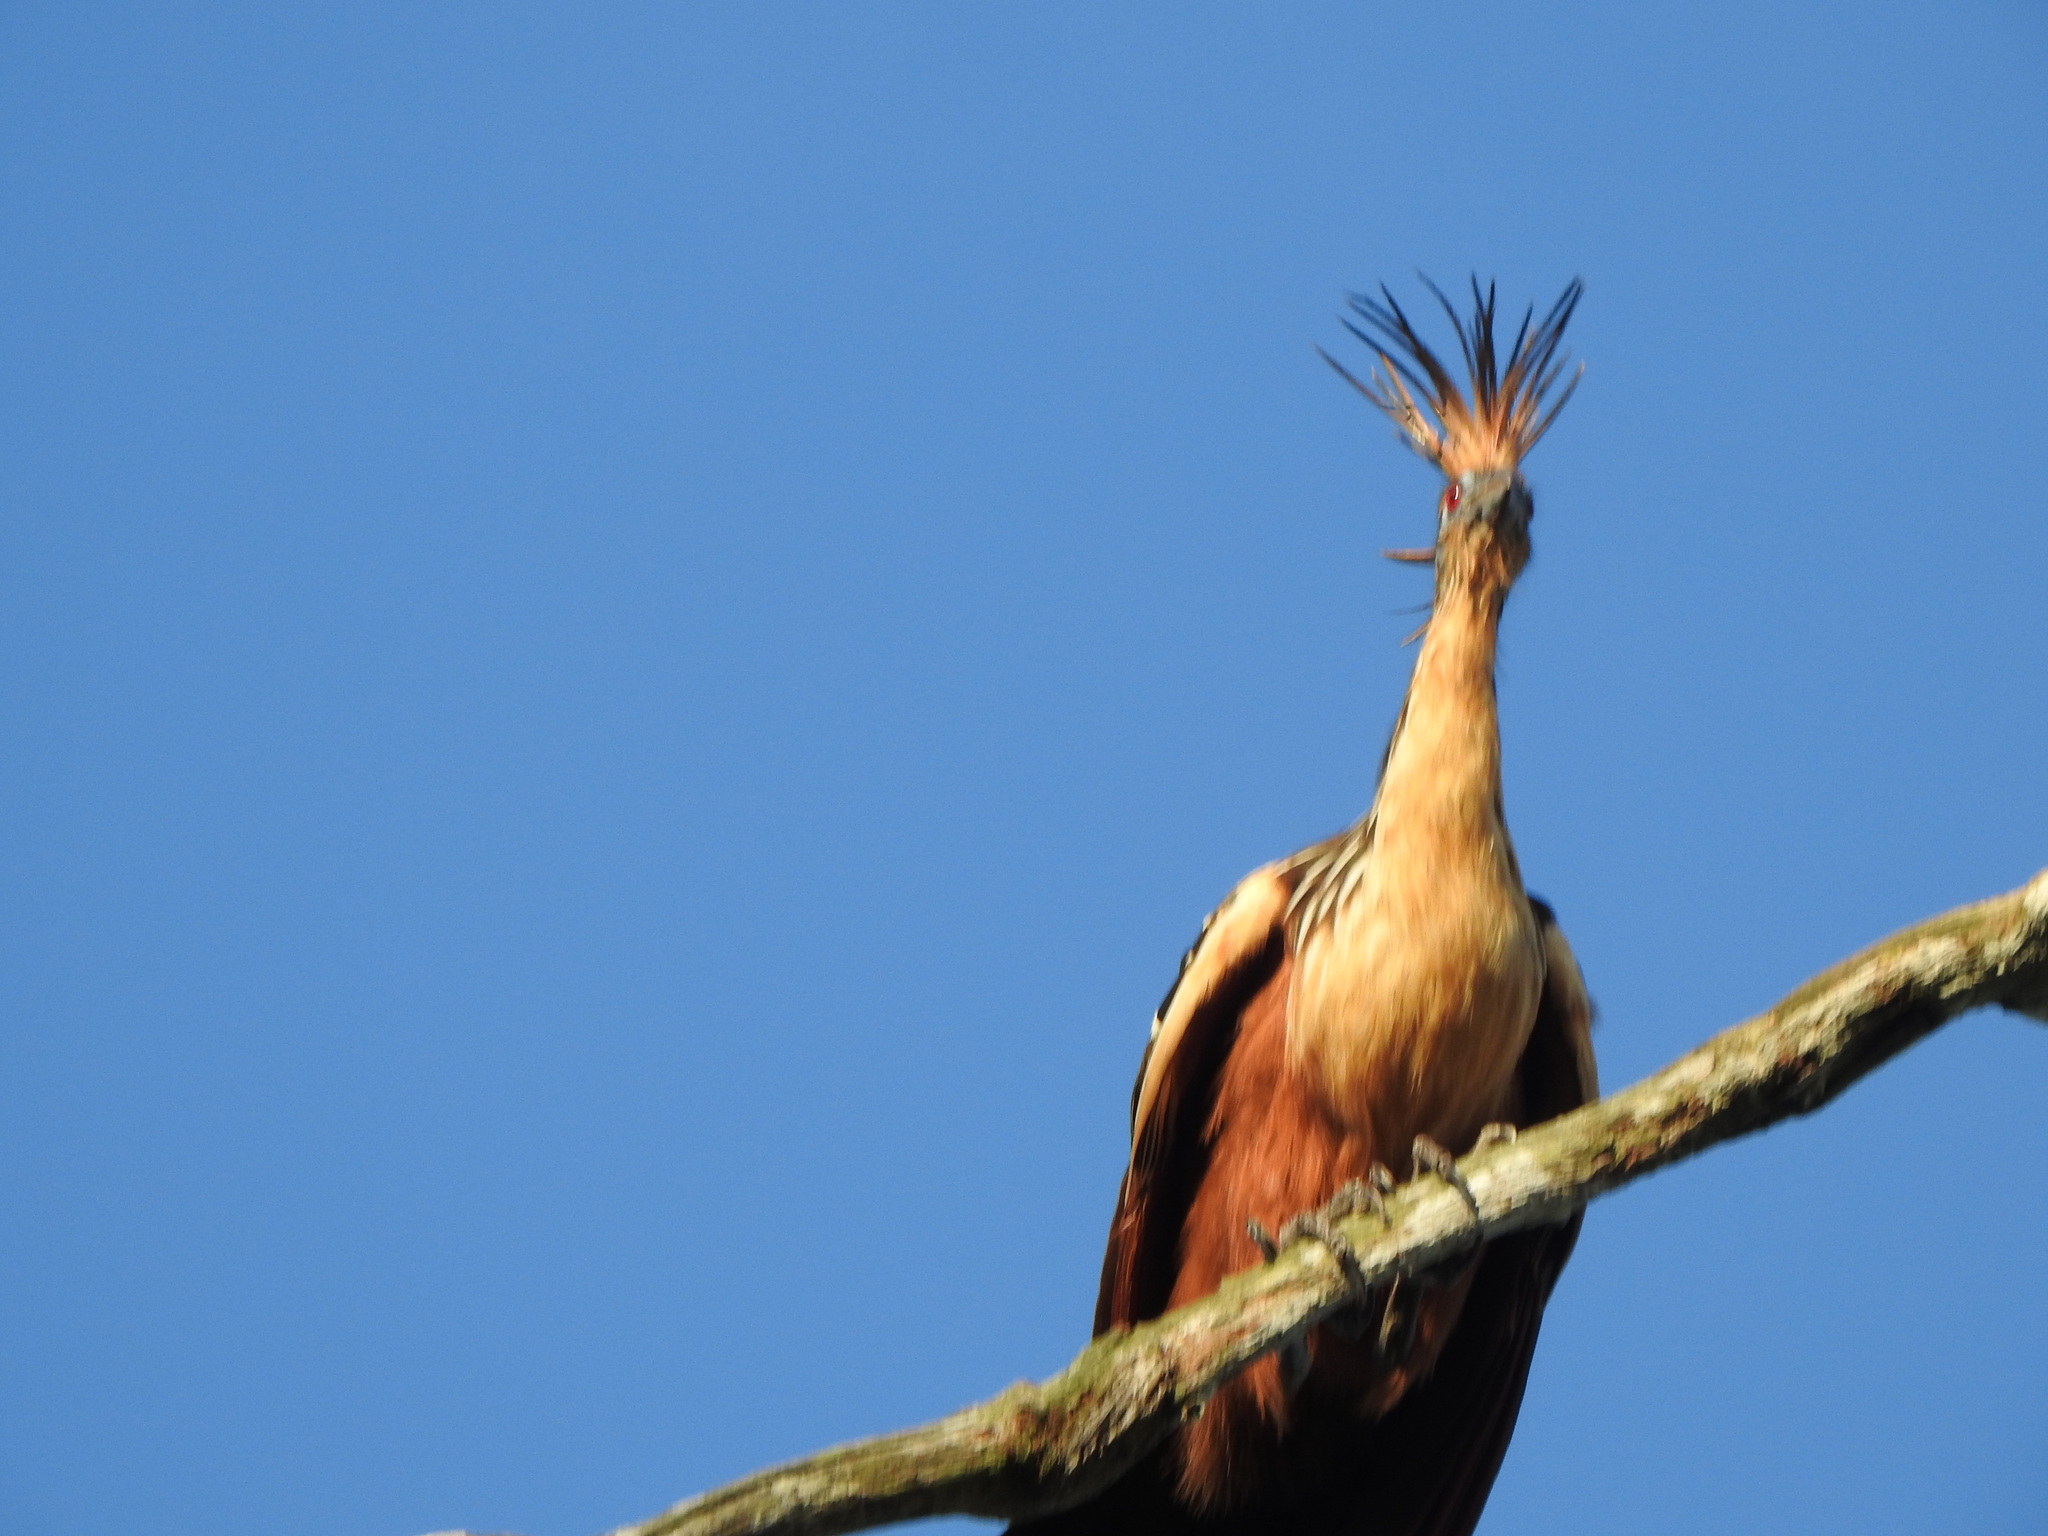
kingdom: Animalia
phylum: Chordata
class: Aves
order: Opisthocomiformes
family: Opisthocomidae
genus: Opisthocomus
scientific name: Opisthocomus hoazin
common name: Hoatzin
